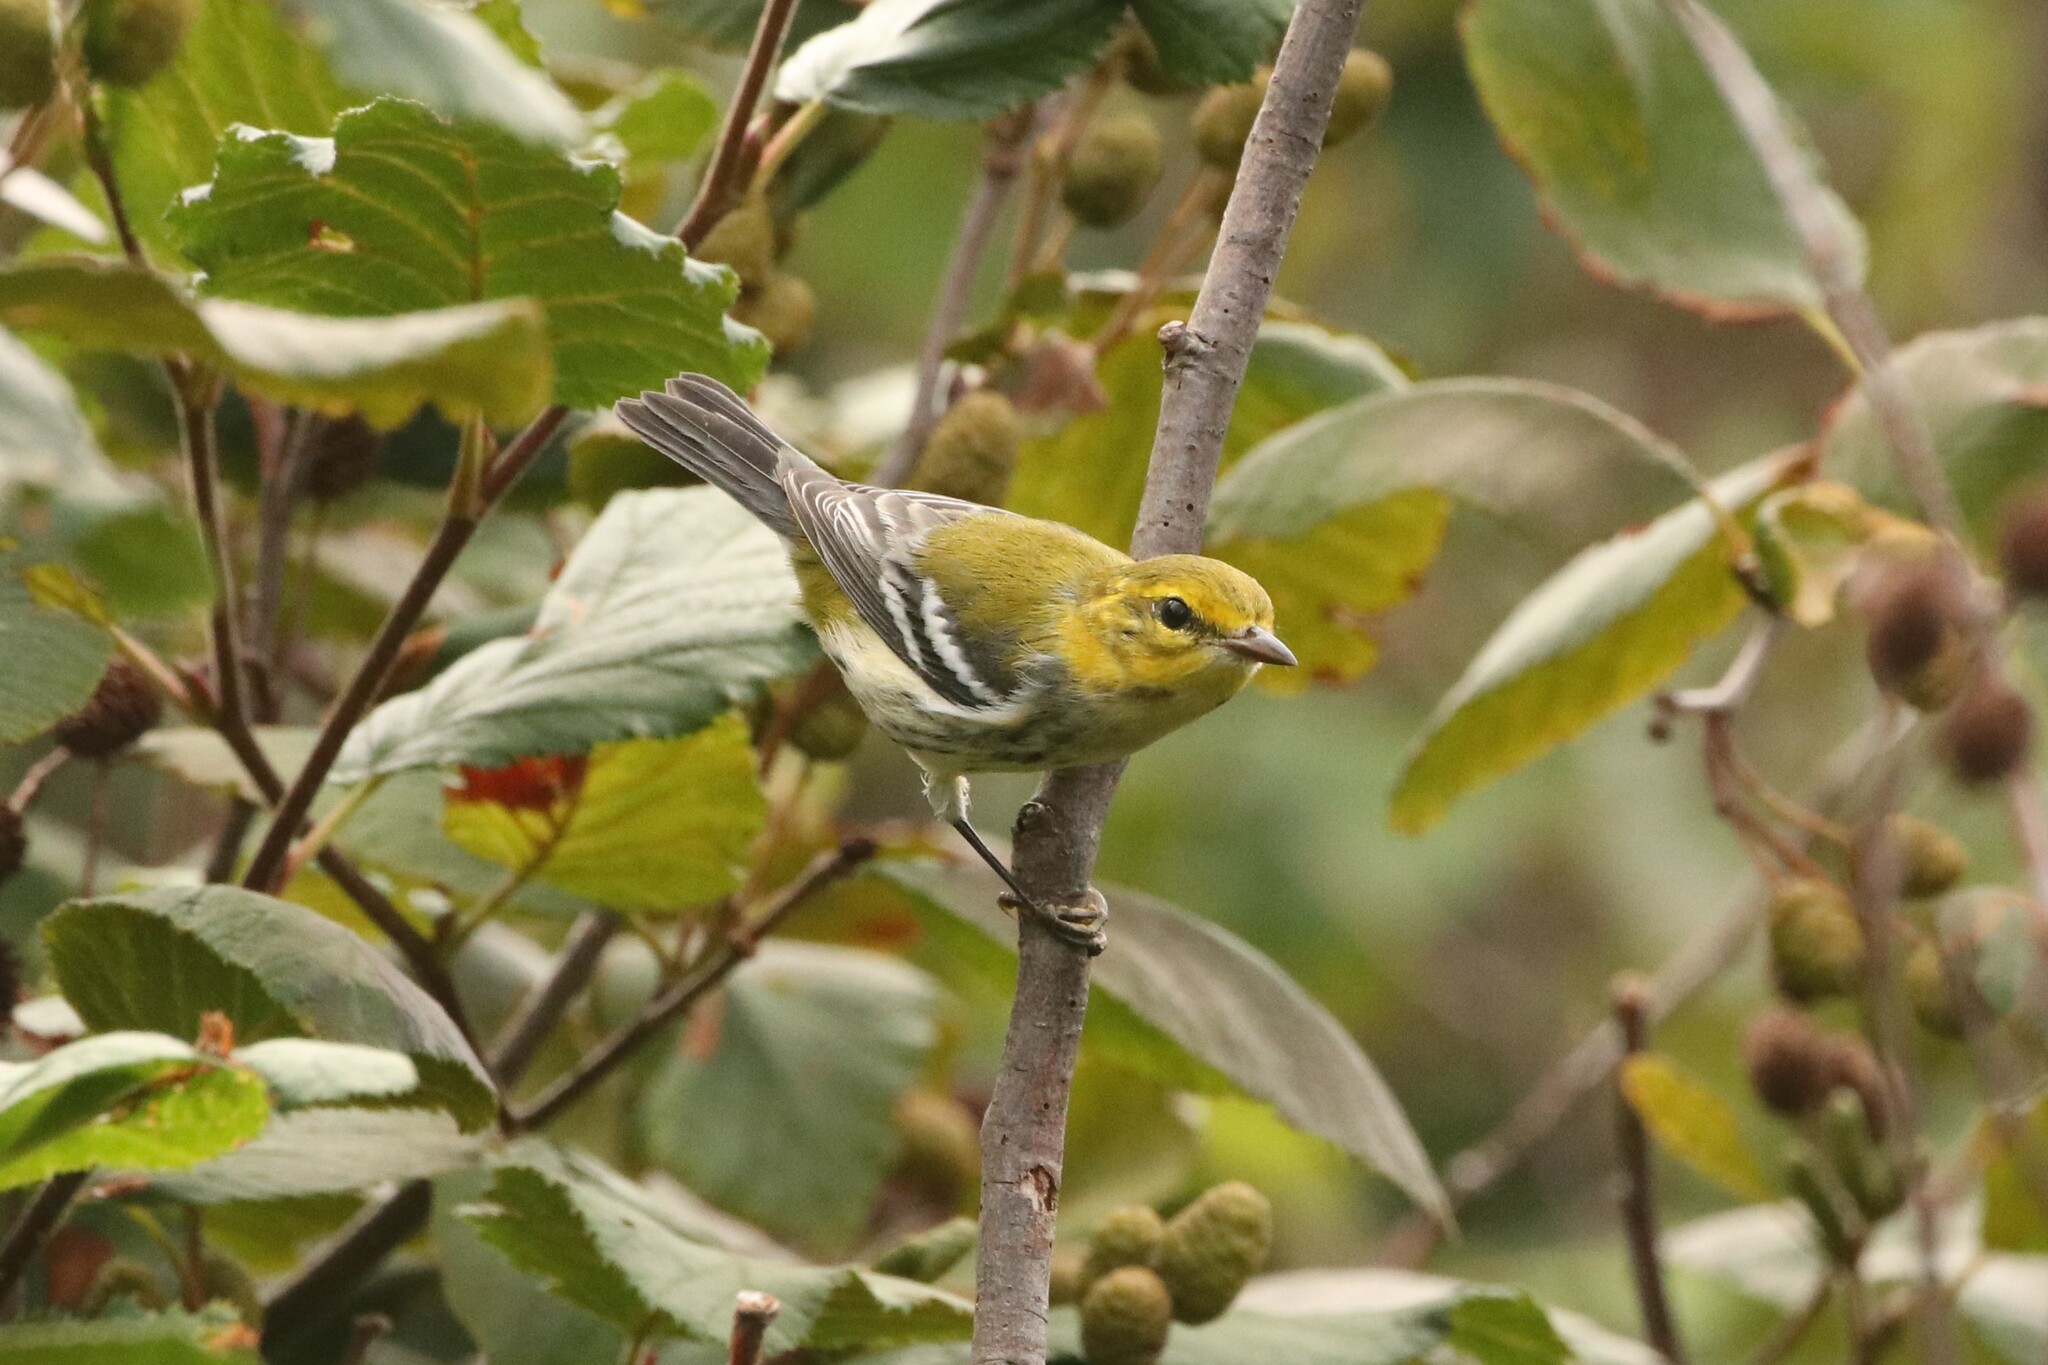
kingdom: Animalia
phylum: Chordata
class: Aves
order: Passeriformes
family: Parulidae
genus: Setophaga
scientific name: Setophaga virens
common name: Black-throated green warbler
